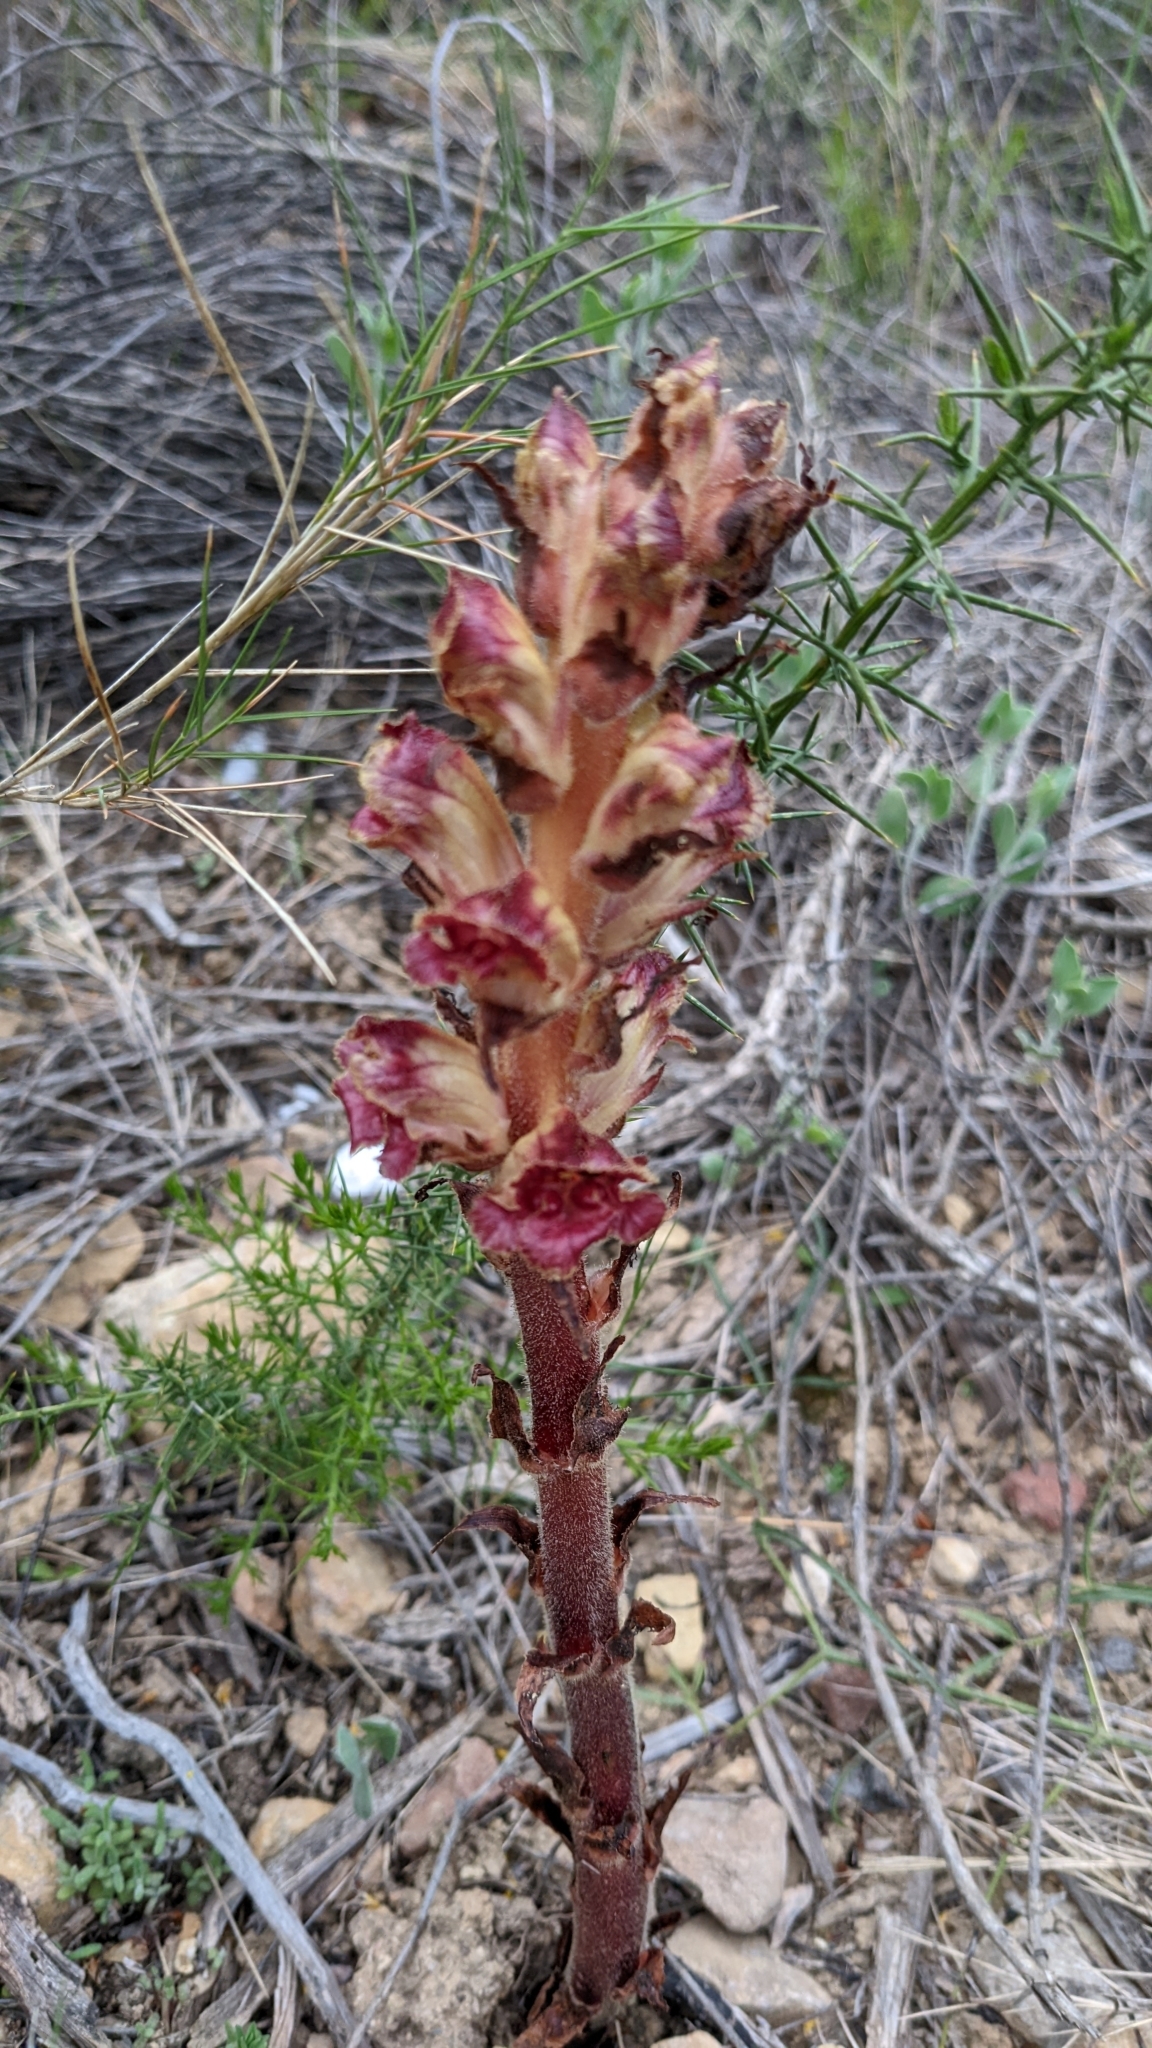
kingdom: Plantae
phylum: Tracheophyta
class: Magnoliopsida
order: Lamiales
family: Orobanchaceae
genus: Orobanche
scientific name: Orobanche gracilis
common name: Slender broomrape
